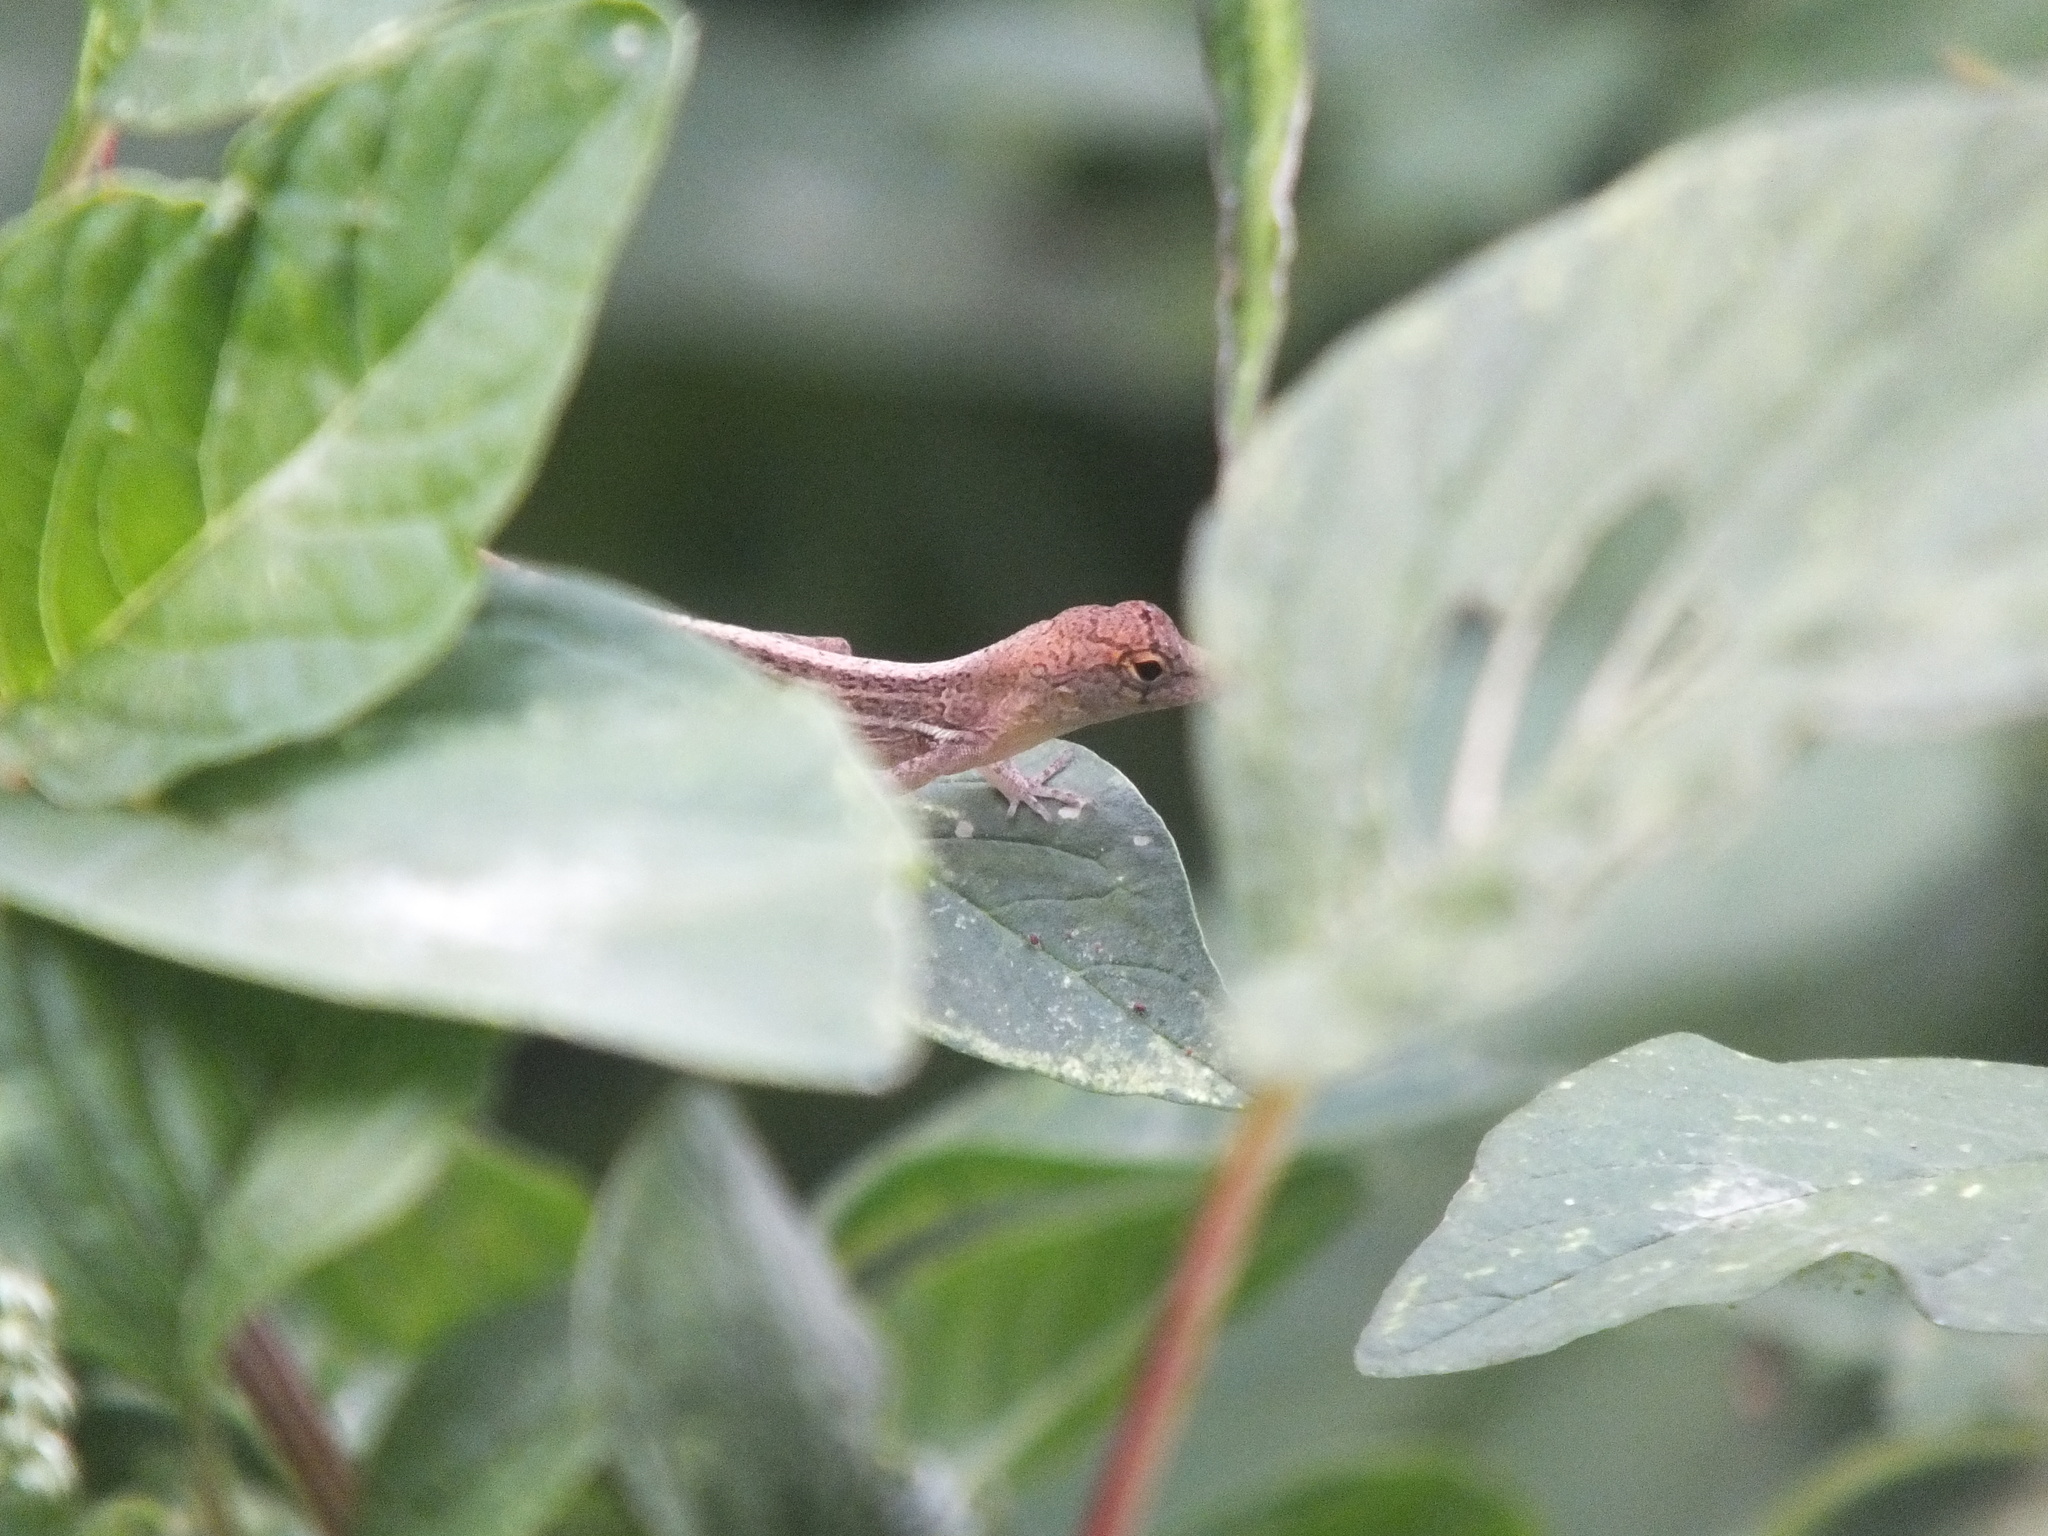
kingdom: Animalia
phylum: Chordata
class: Squamata
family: Dactyloidae
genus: Anolis
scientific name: Anolis lineatopus
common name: Stripefoot anole
